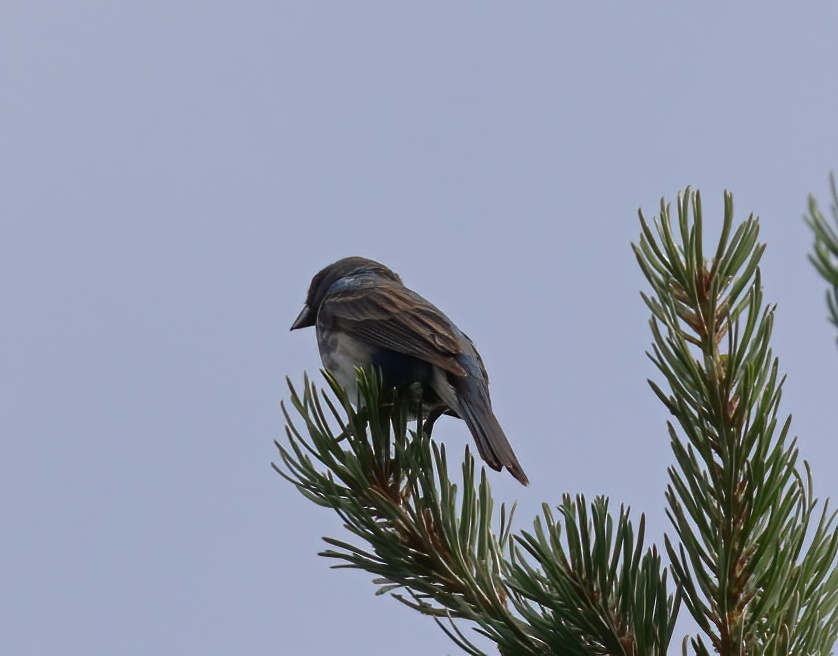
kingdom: Animalia
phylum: Chordata
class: Aves
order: Passeriformes
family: Cardinalidae
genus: Passerina
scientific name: Passerina cyanea
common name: Indigo bunting
